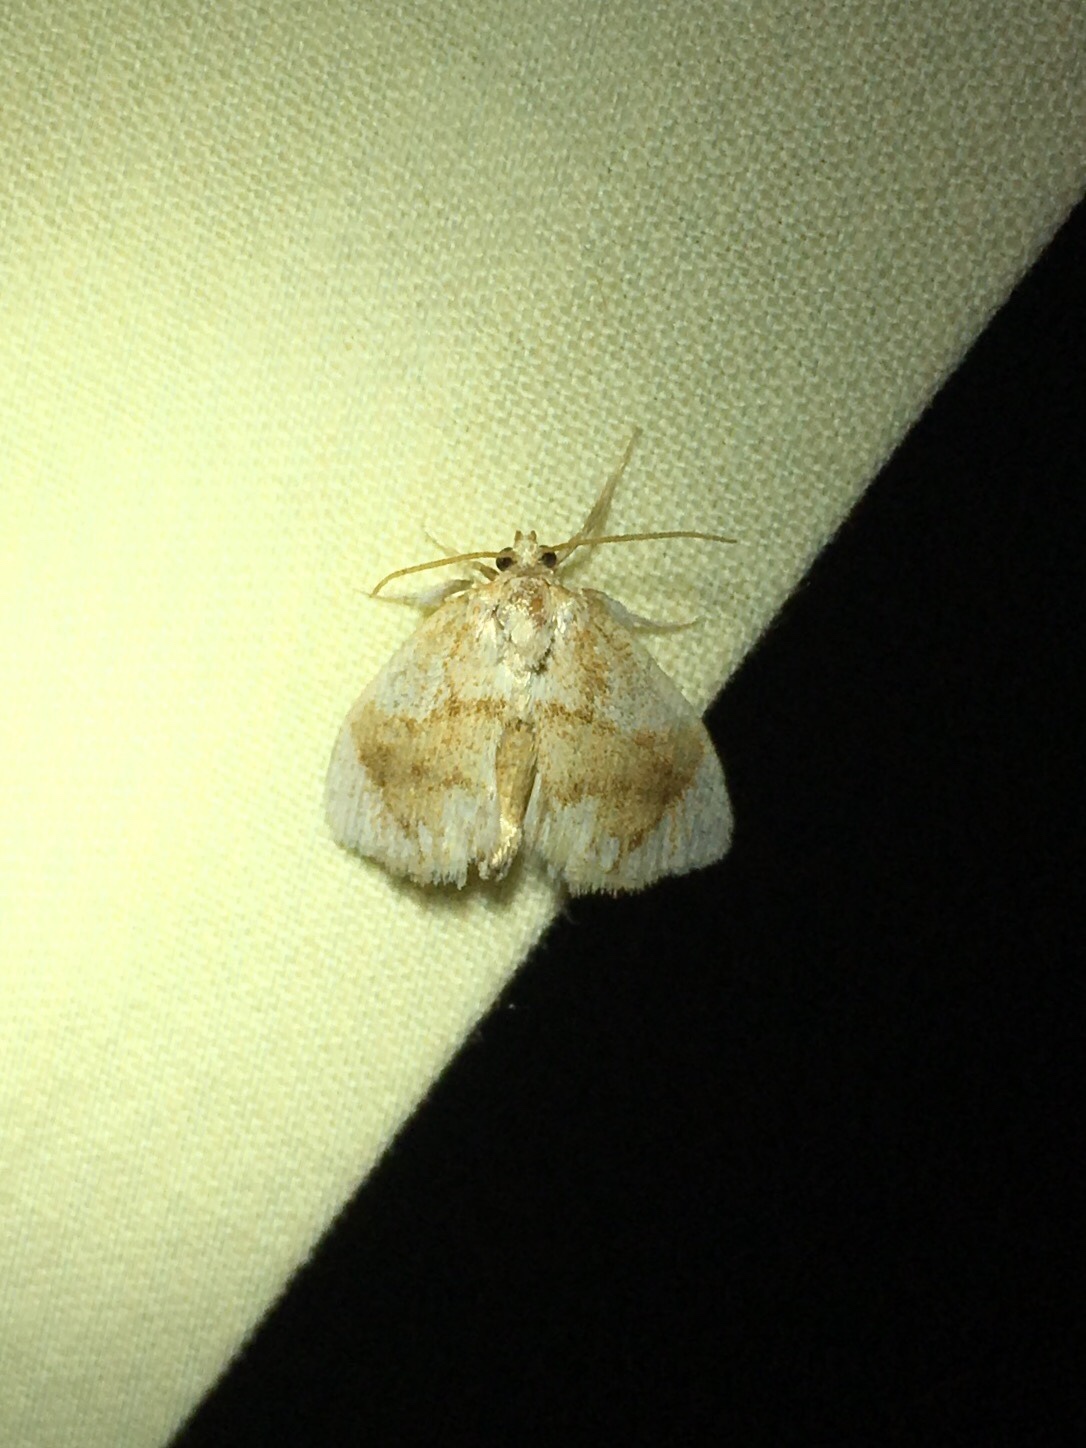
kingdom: Animalia
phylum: Arthropoda
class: Insecta
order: Lepidoptera
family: Limacodidae
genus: Packardia
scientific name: Packardia geminata
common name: Jeweled tailed slug moth
